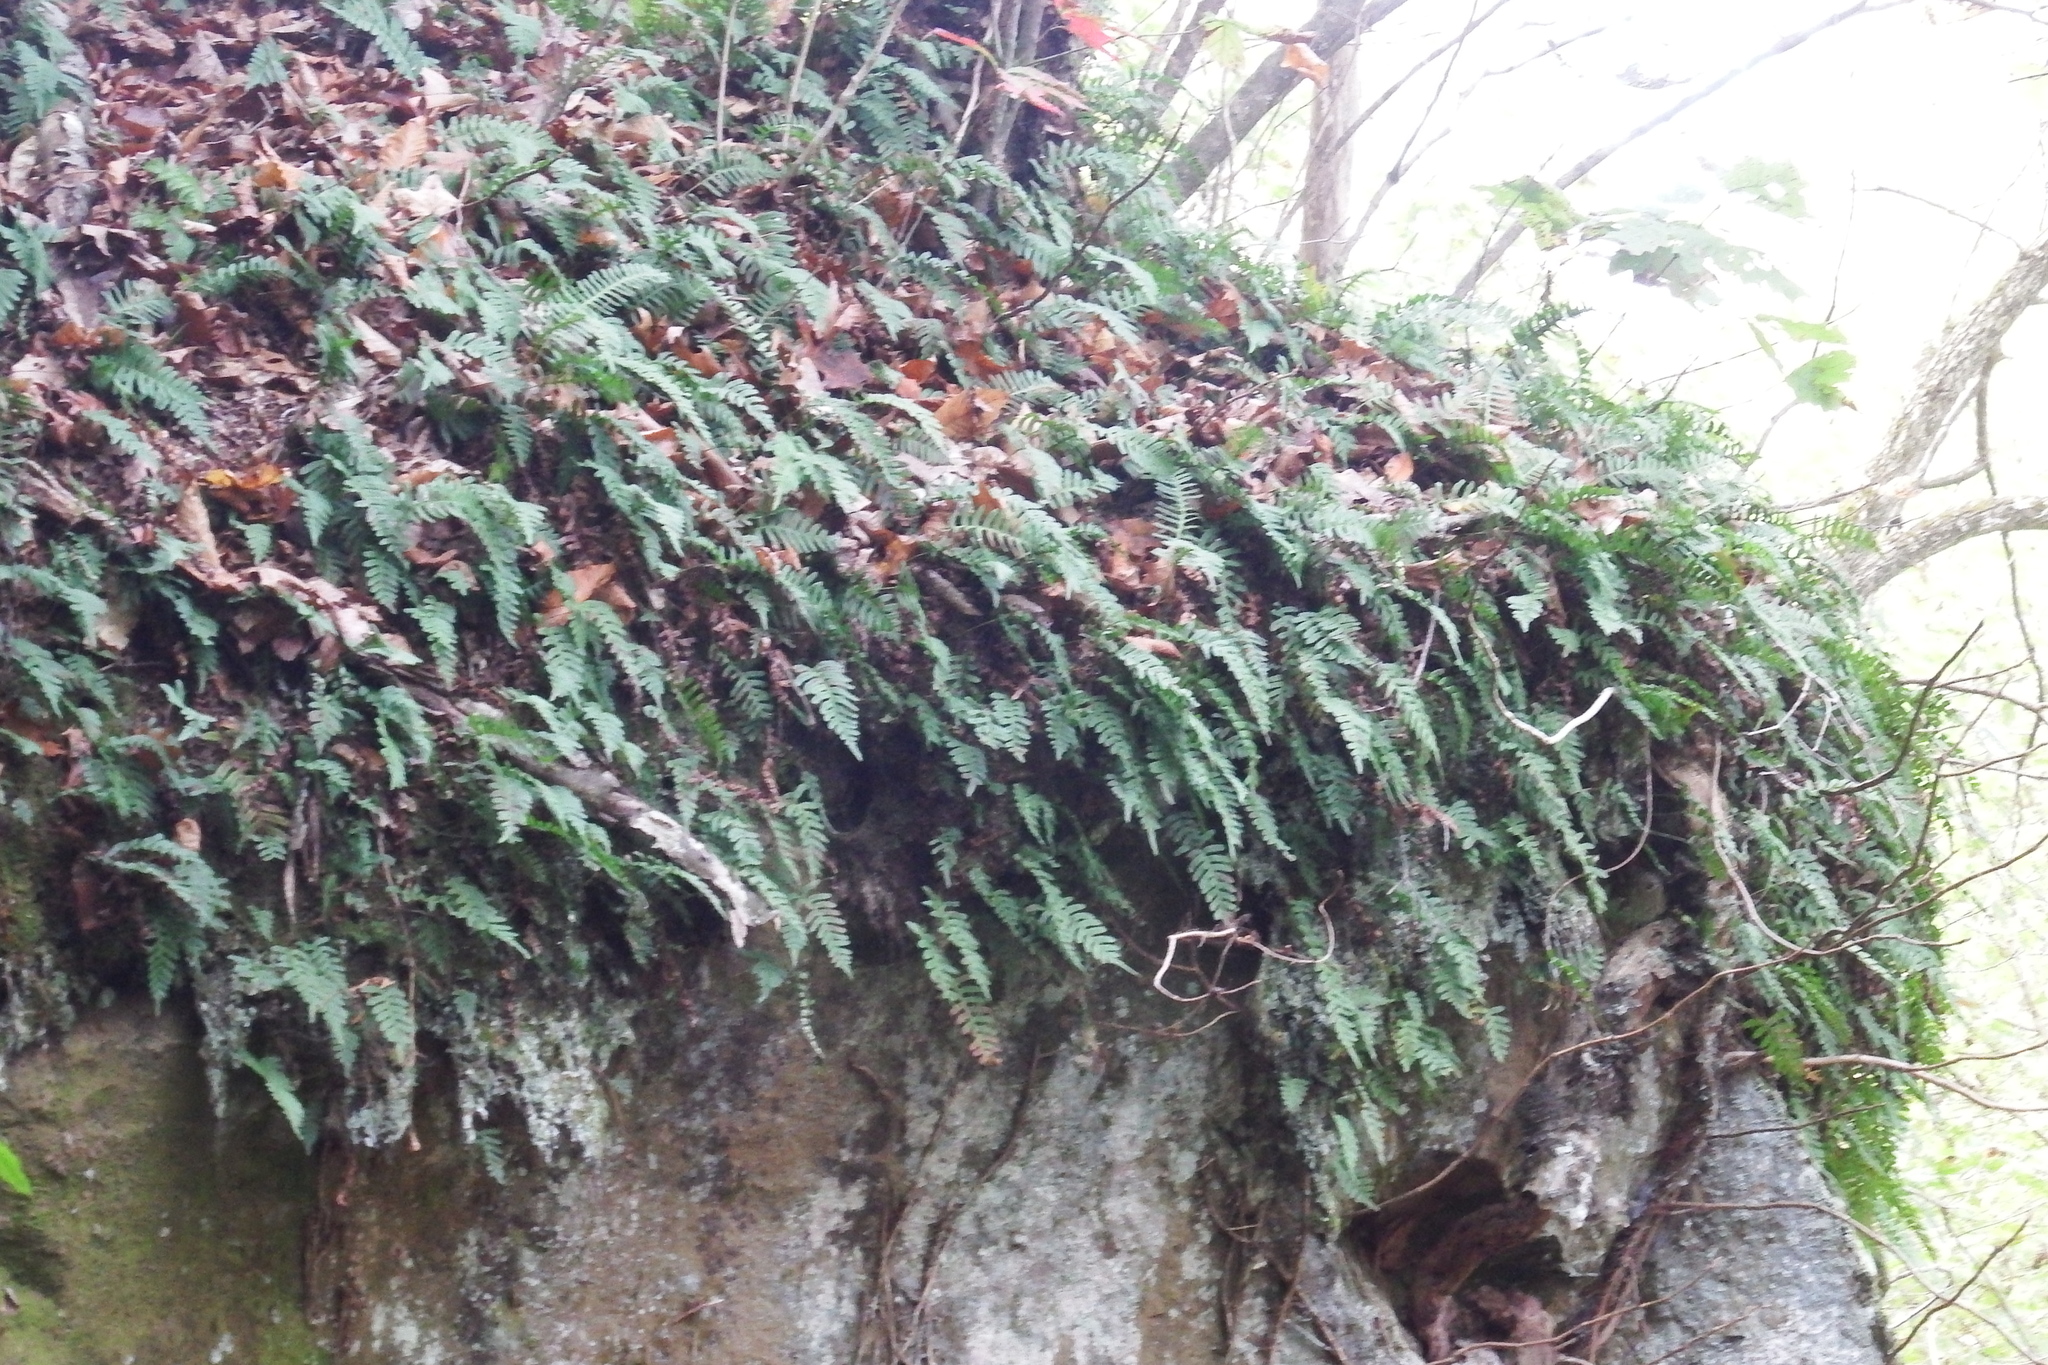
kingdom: Plantae
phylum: Tracheophyta
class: Polypodiopsida
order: Polypodiales
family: Polypodiaceae
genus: Polypodium
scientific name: Polypodium virginianum
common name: American wall fern
